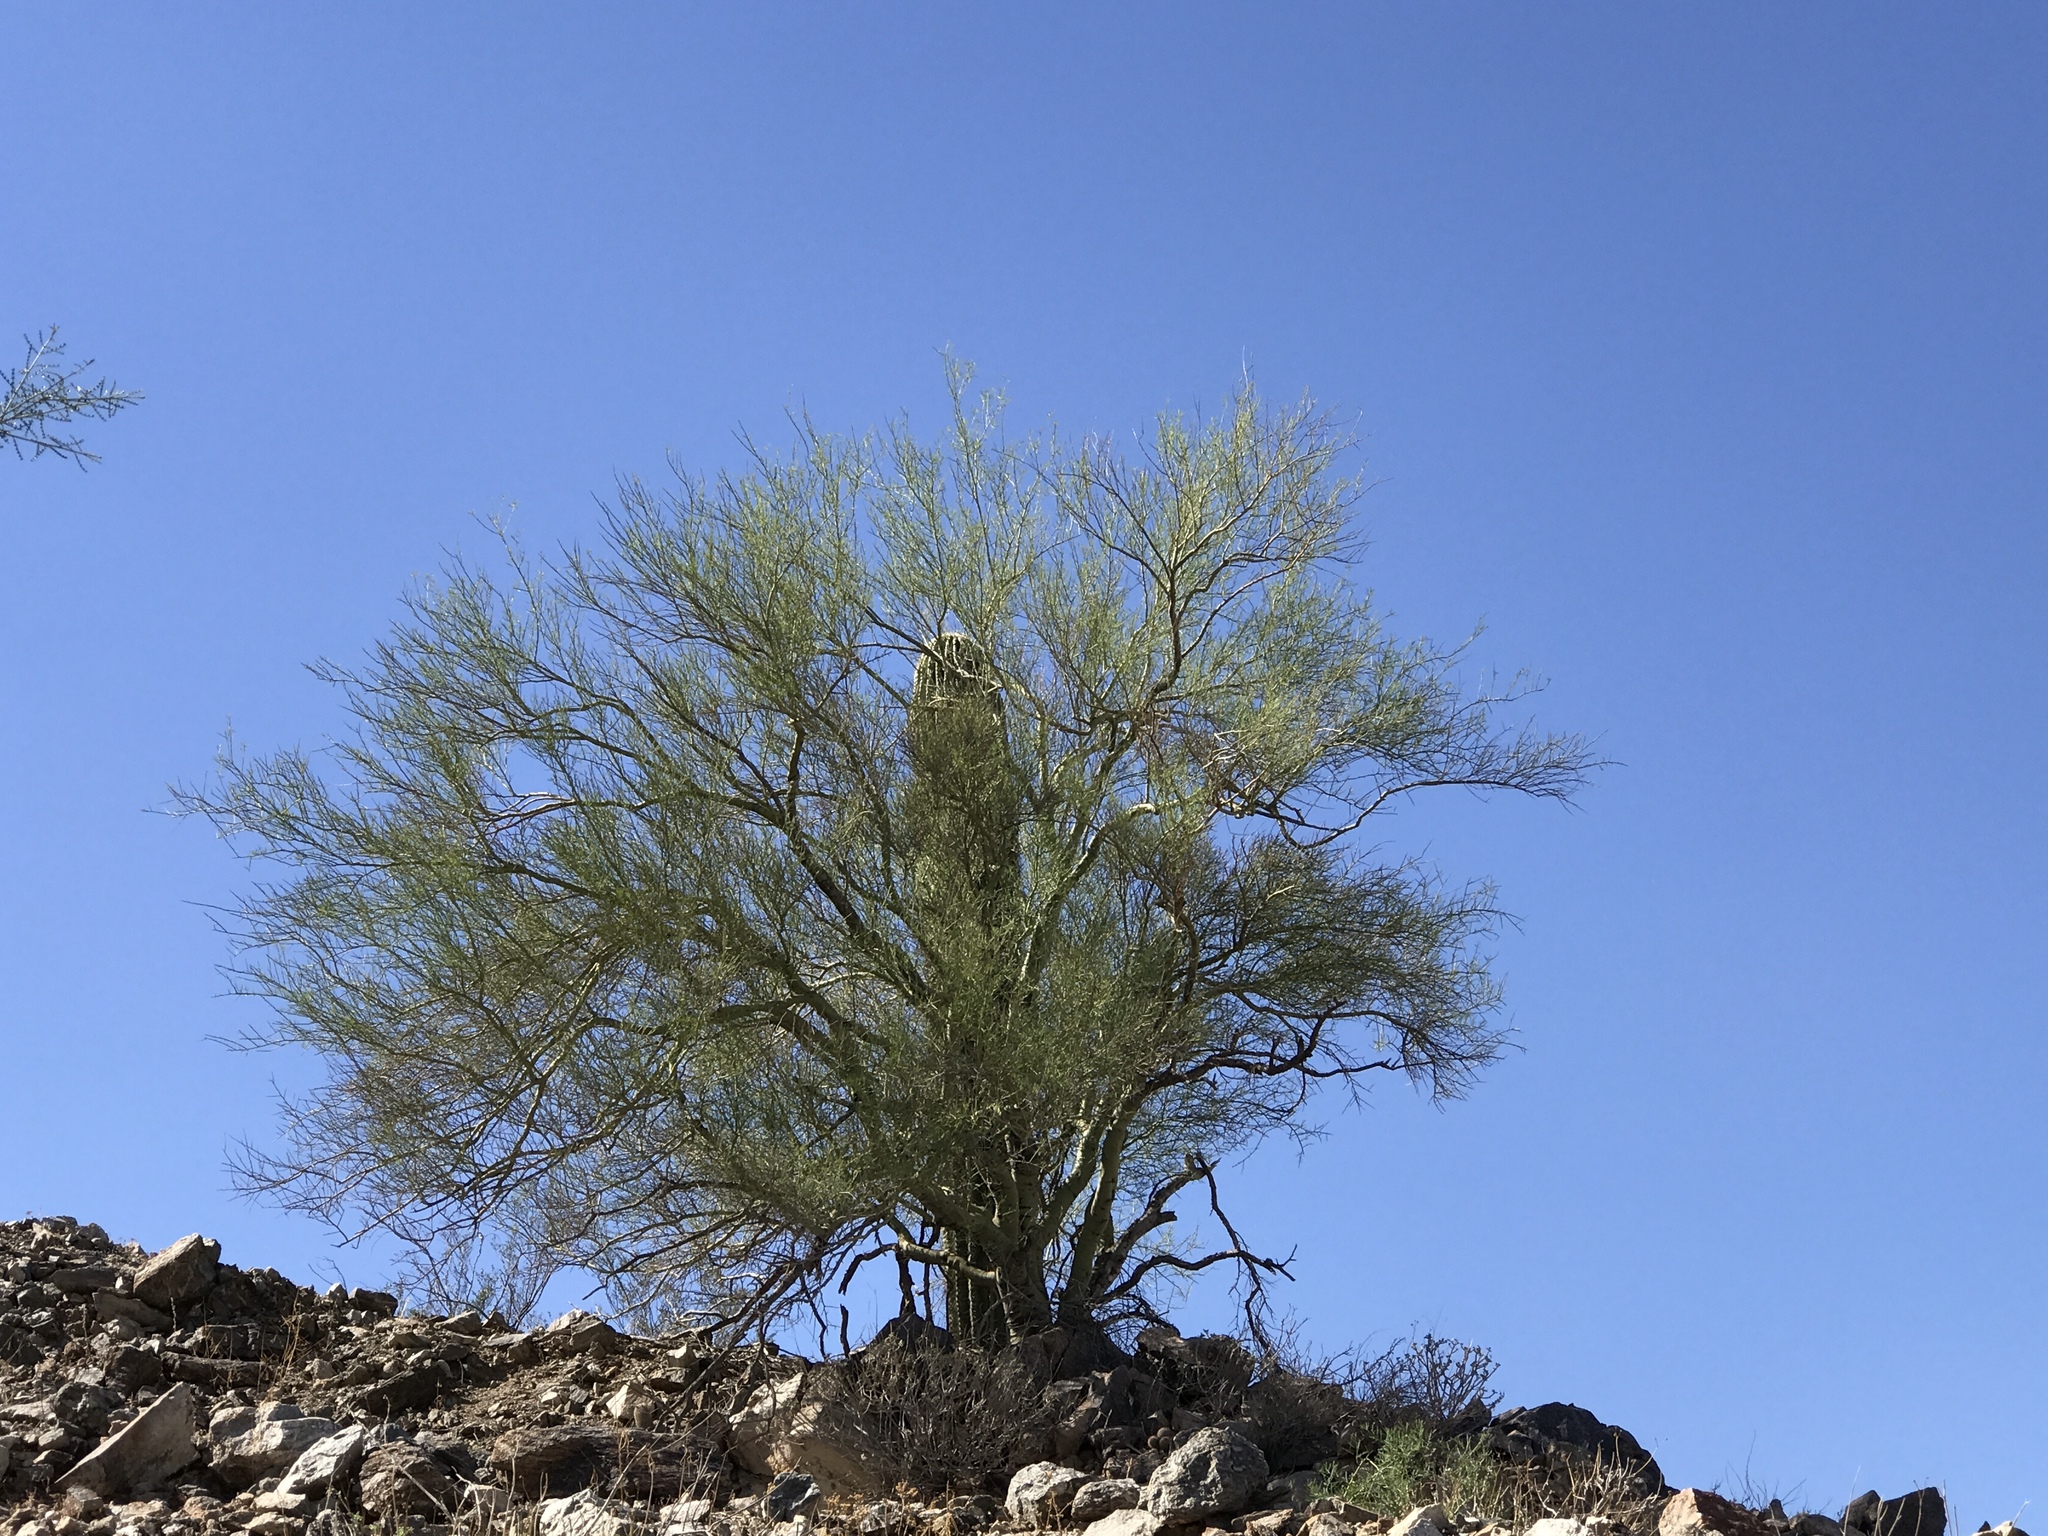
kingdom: Plantae
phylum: Tracheophyta
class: Magnoliopsida
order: Fabales
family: Fabaceae
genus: Parkinsonia
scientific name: Parkinsonia florida
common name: Blue paloverde
